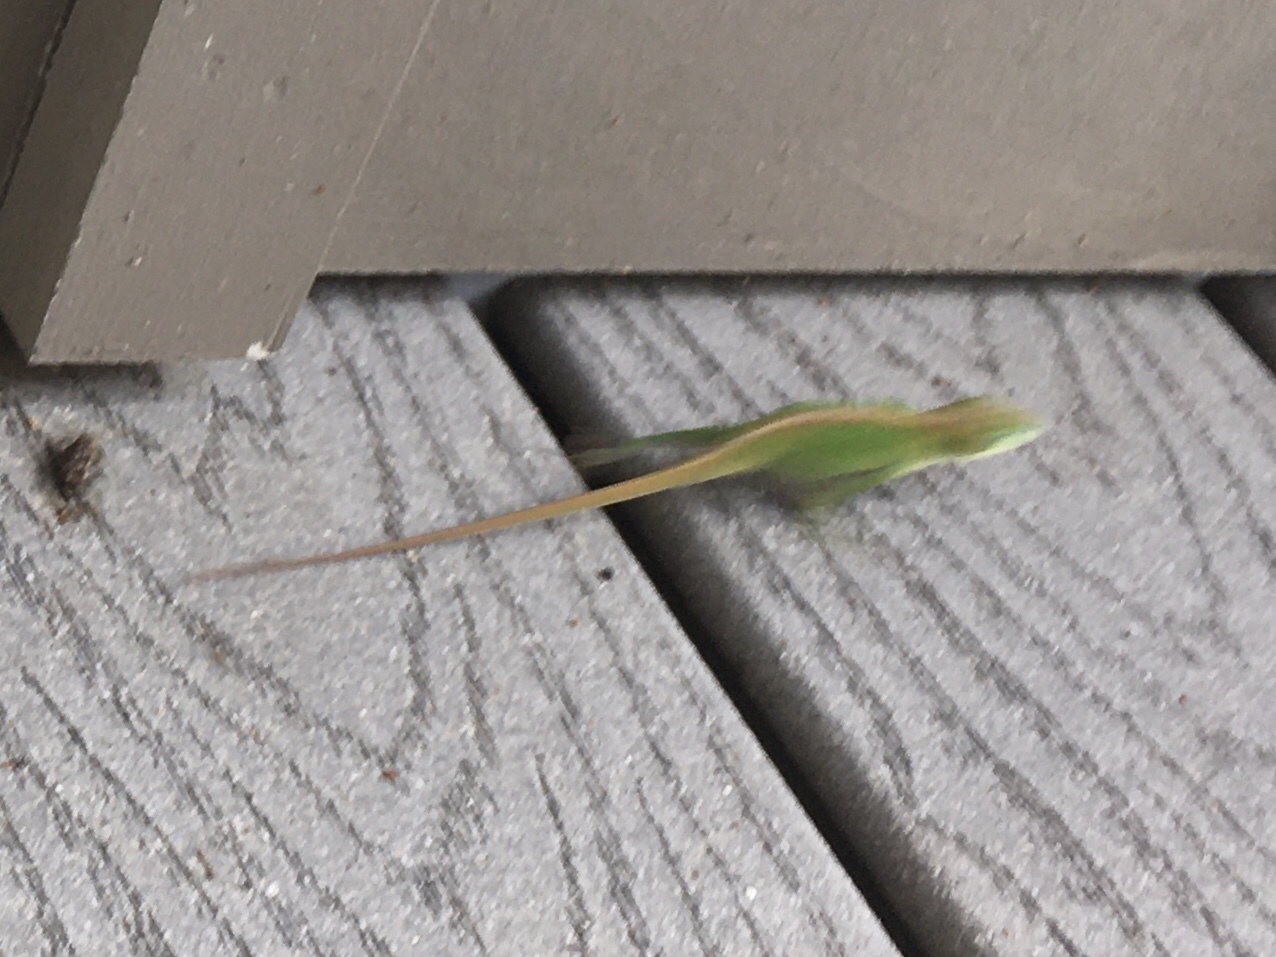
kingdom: Animalia
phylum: Chordata
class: Squamata
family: Dactyloidae
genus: Anolis
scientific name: Anolis carolinensis
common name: Green anole
